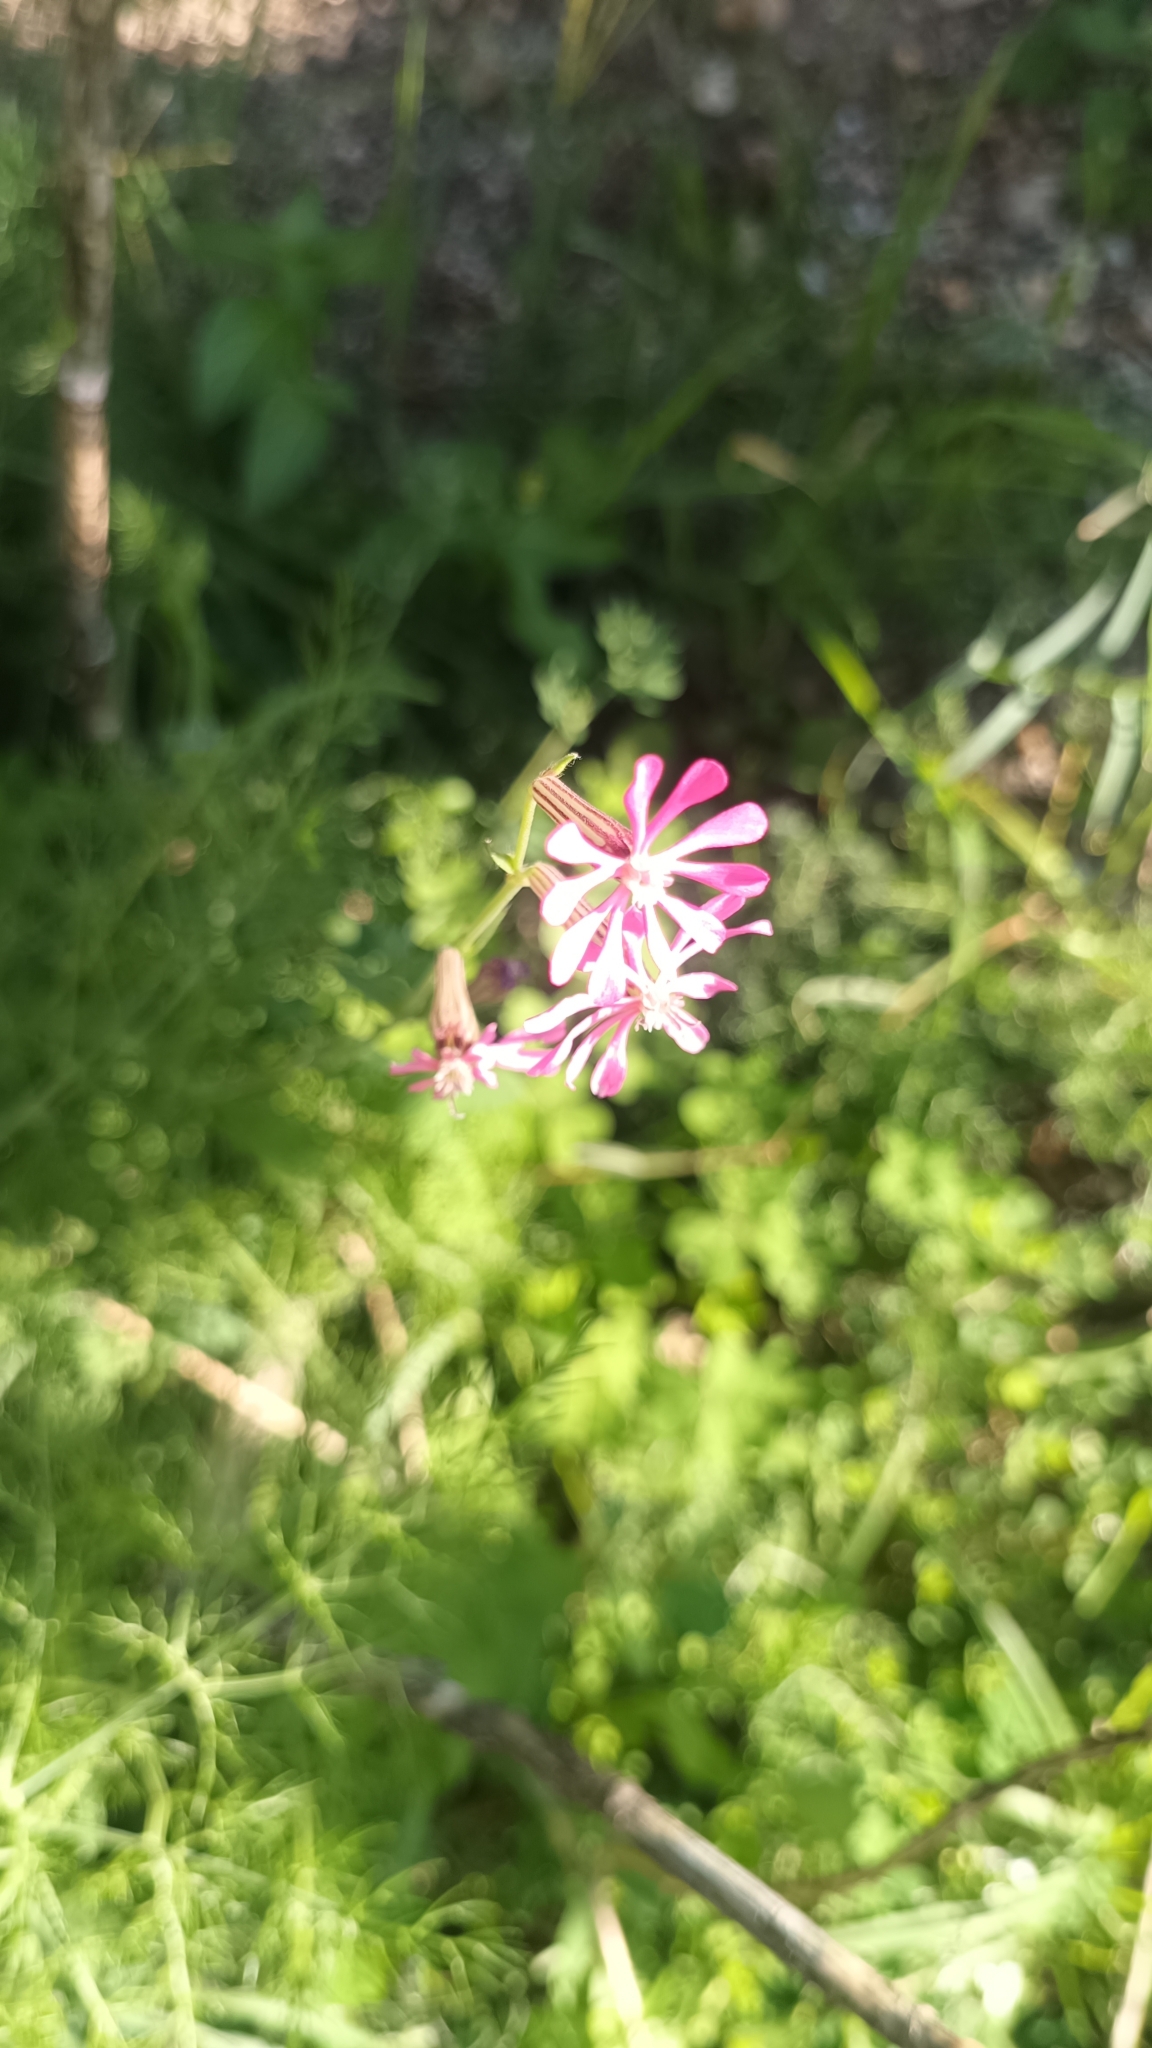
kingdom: Plantae
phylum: Tracheophyta
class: Magnoliopsida
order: Caryophyllales
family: Caryophyllaceae
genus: Silene
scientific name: Silene colorata
